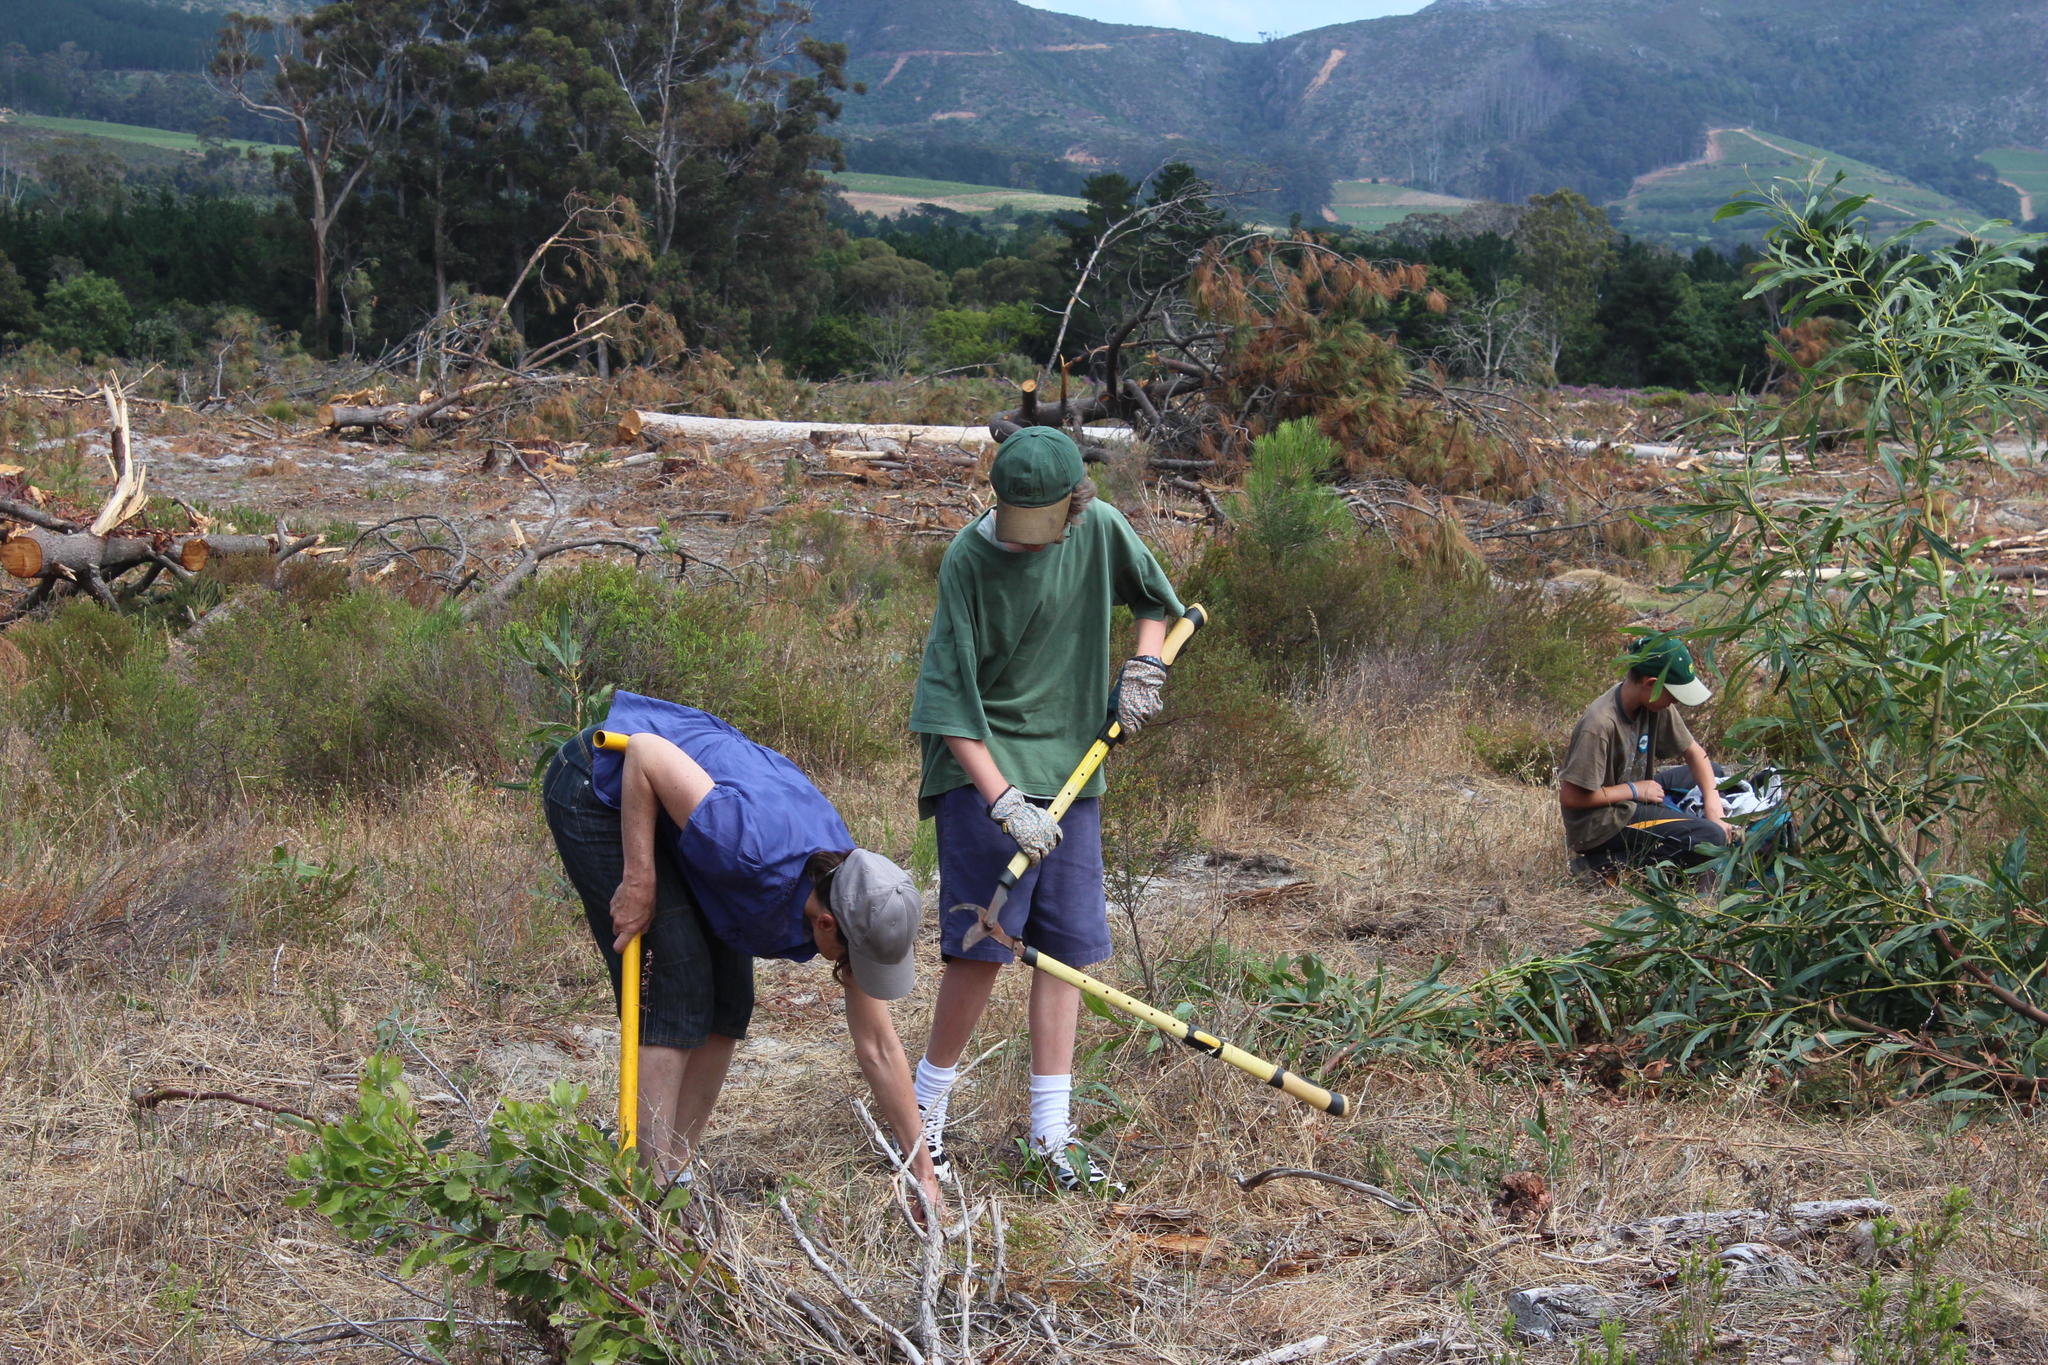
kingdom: Plantae
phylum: Tracheophyta
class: Magnoliopsida
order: Fabales
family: Fabaceae
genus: Acacia
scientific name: Acacia saligna
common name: Orange wattle
